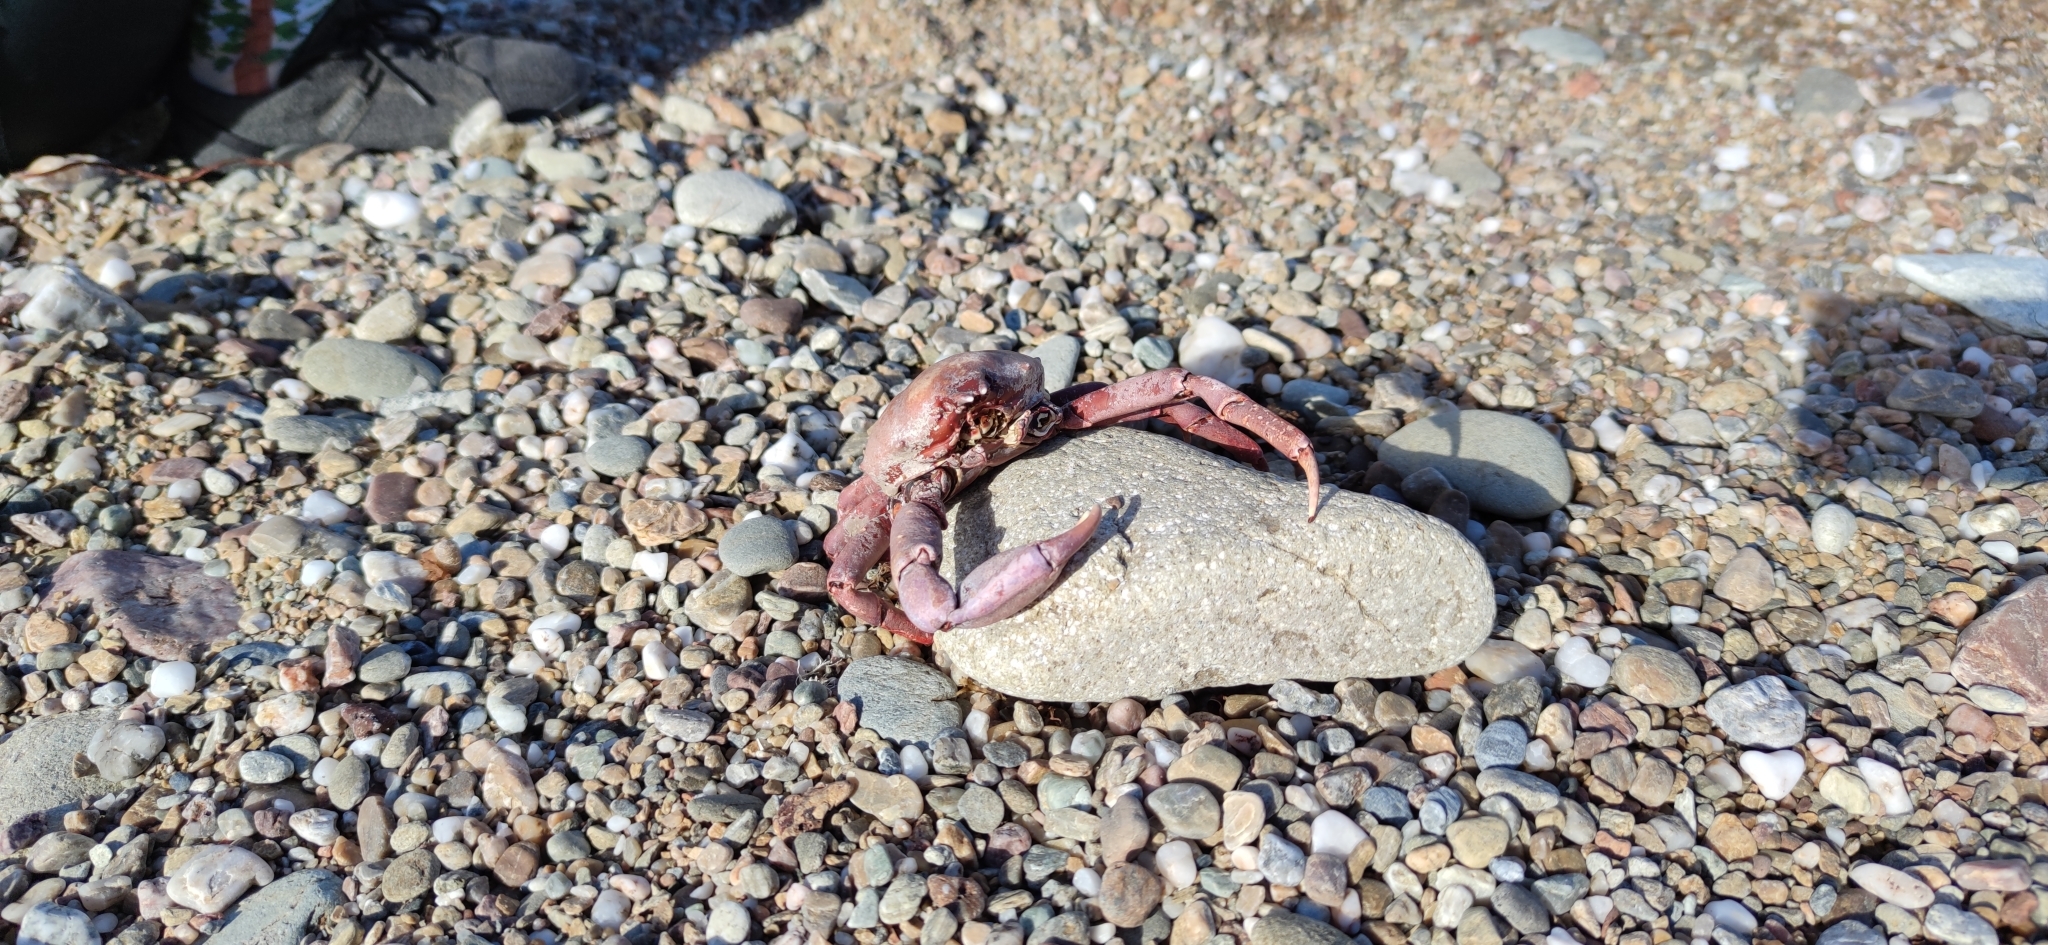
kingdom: Animalia
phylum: Arthropoda
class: Malacostraca
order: Decapoda
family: Epialtidae
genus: Taliepus
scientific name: Taliepus nuttallii
